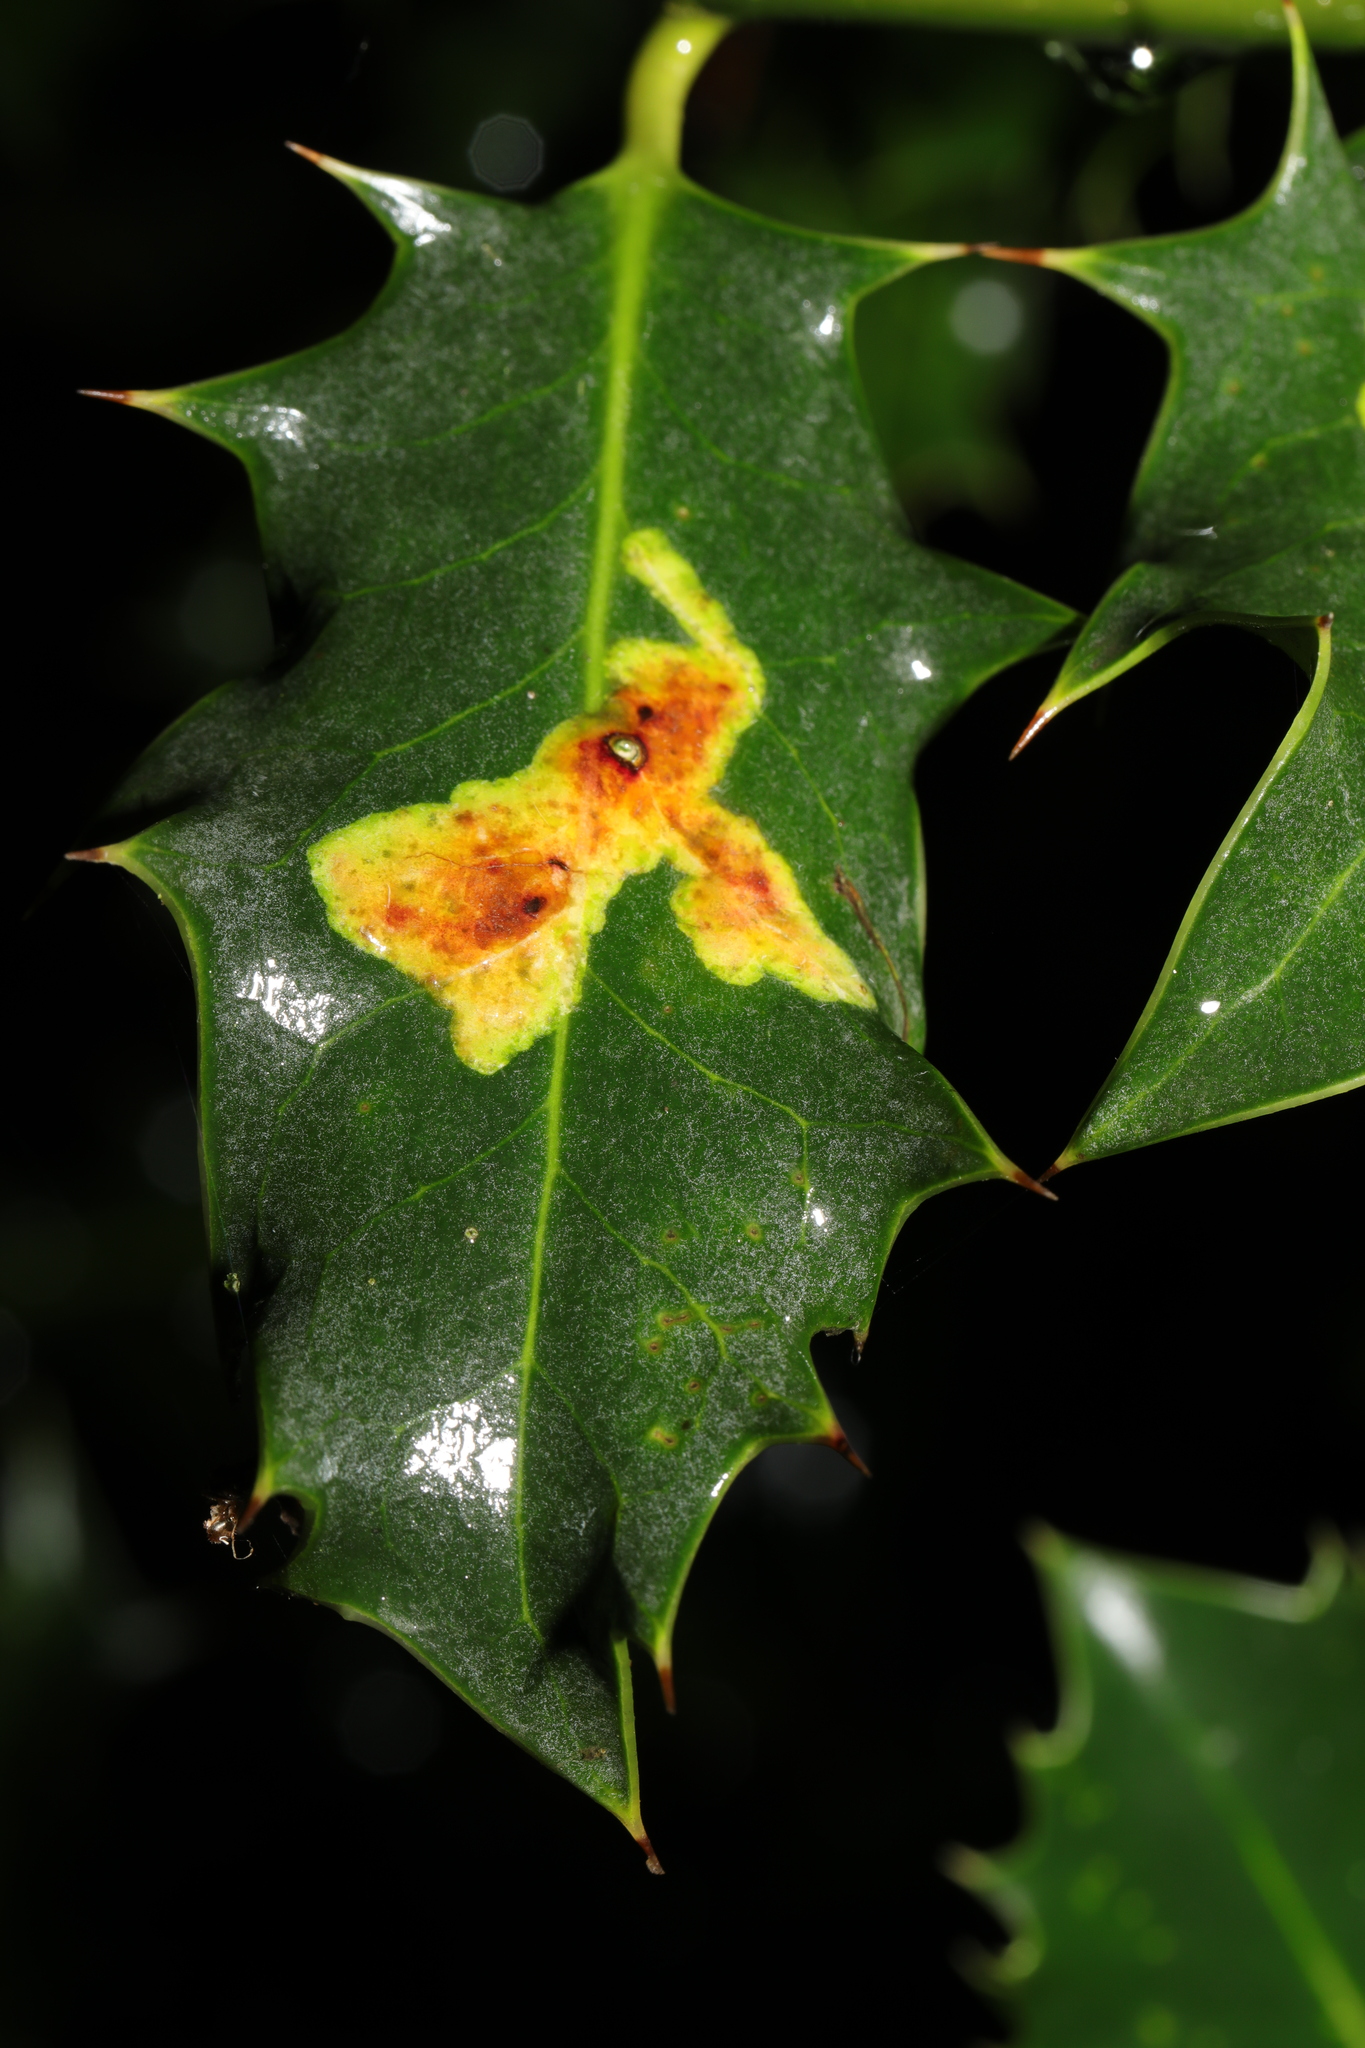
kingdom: Animalia
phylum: Arthropoda
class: Insecta
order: Diptera
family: Agromyzidae
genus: Phytomyza
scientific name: Phytomyza ilicis
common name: Holly leafminer
